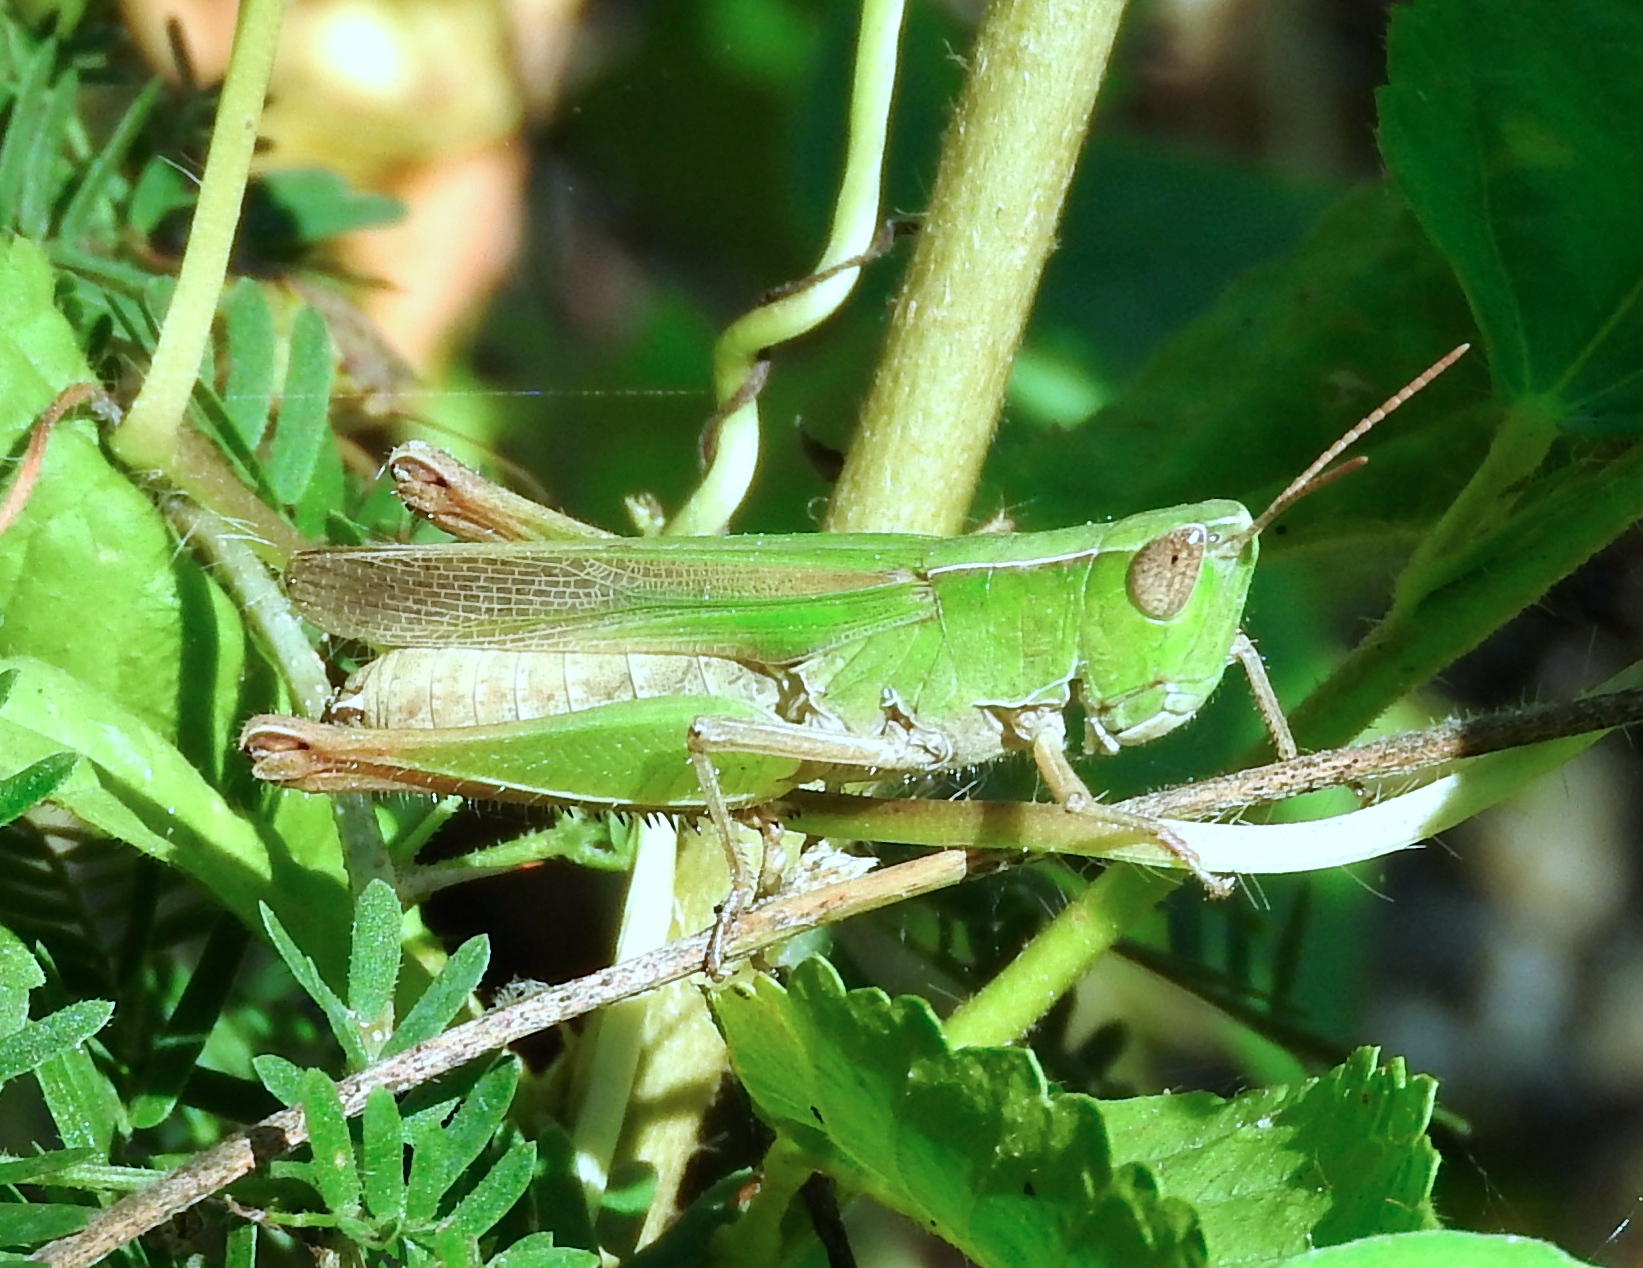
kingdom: Animalia
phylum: Arthropoda
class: Insecta
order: Orthoptera
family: Acrididae
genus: Dichromorpha
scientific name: Dichromorpha prominula
